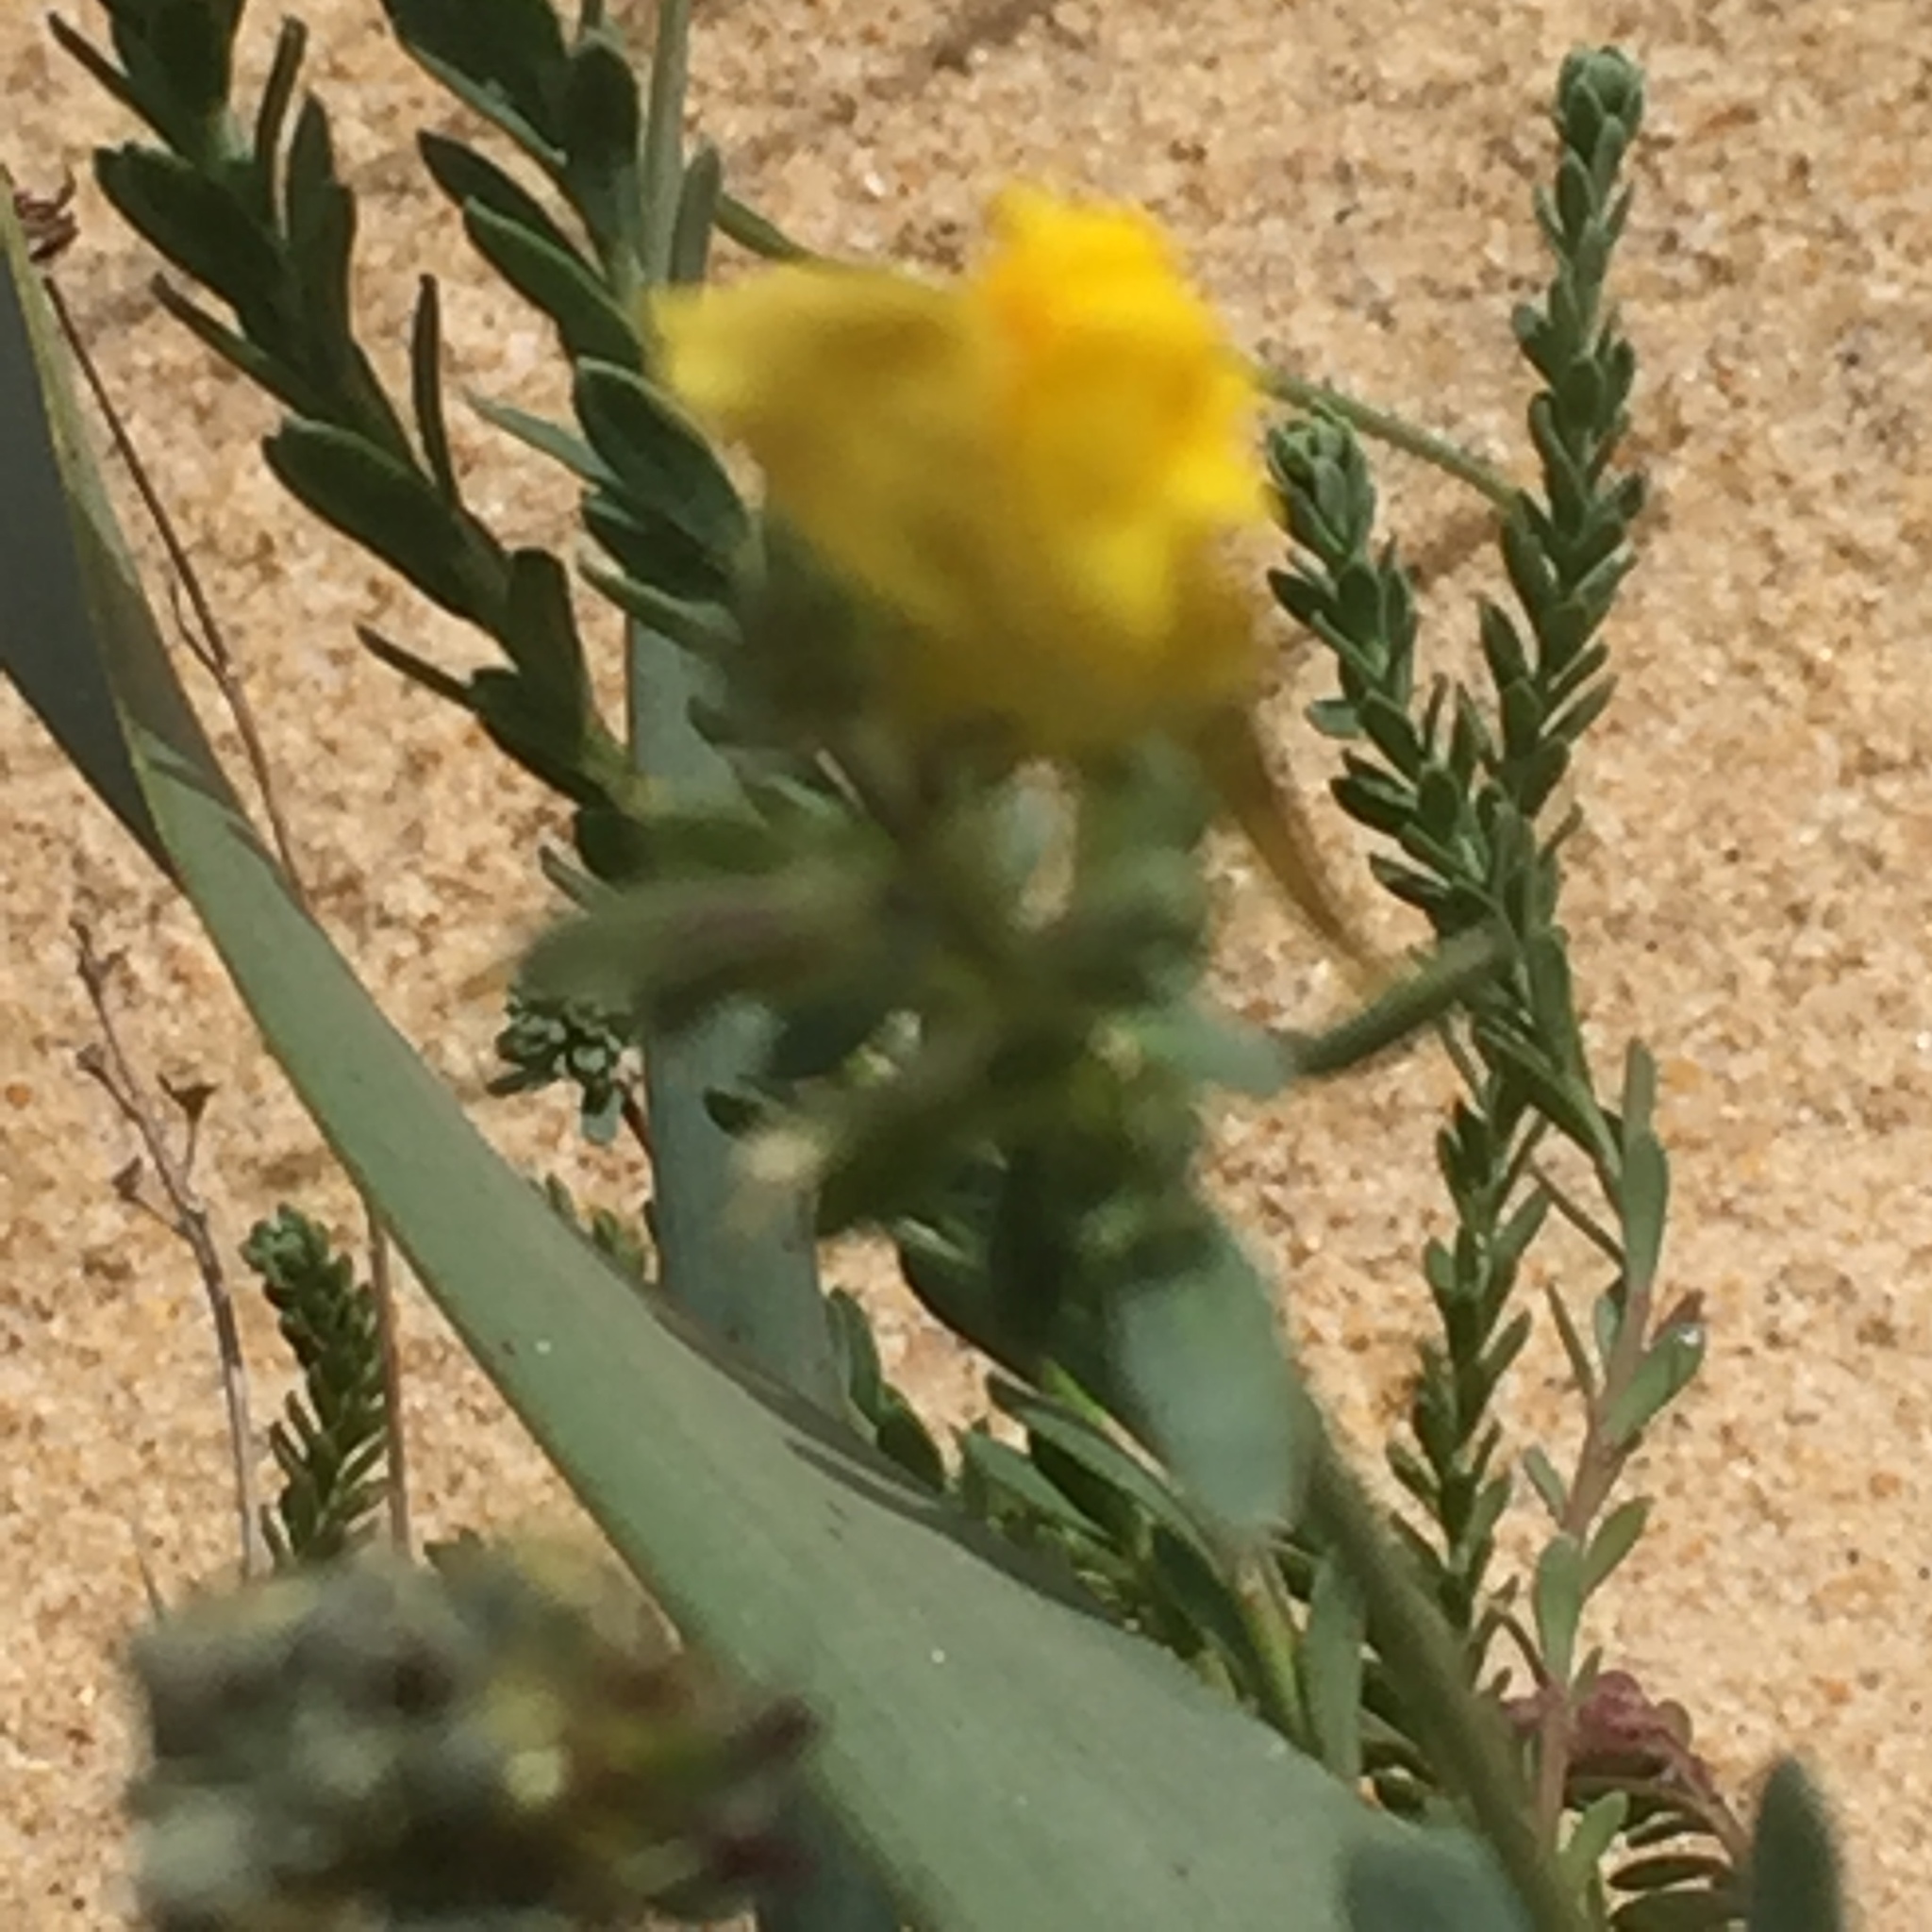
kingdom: Plantae
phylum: Tracheophyta
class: Magnoliopsida
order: Lamiales
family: Plantaginaceae
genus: Linaria
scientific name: Linaria polygalifolia
